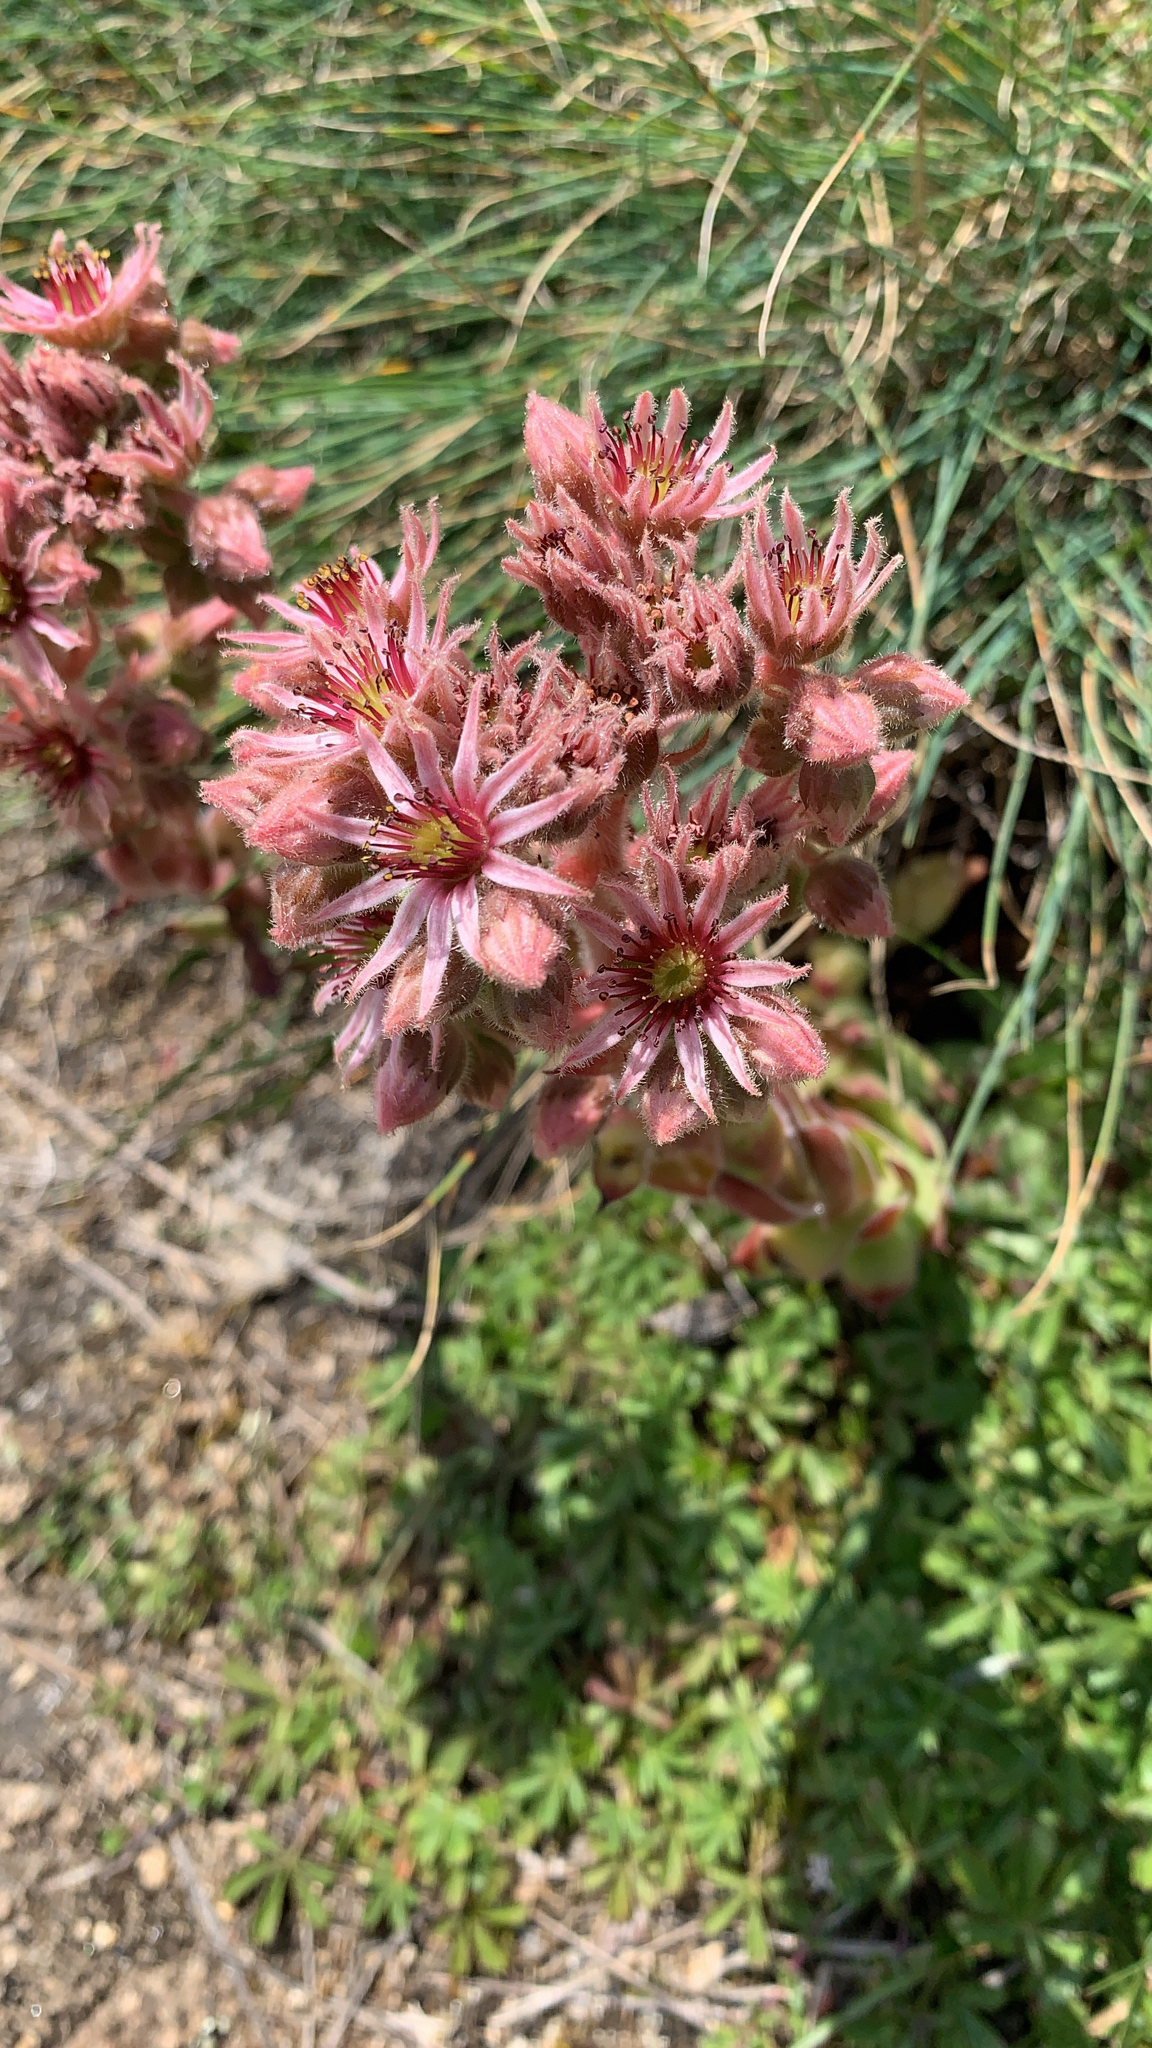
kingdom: Plantae
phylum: Tracheophyta
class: Magnoliopsida
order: Saxifragales
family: Crassulaceae
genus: Sempervivum
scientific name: Sempervivum tectorum
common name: House-leek
